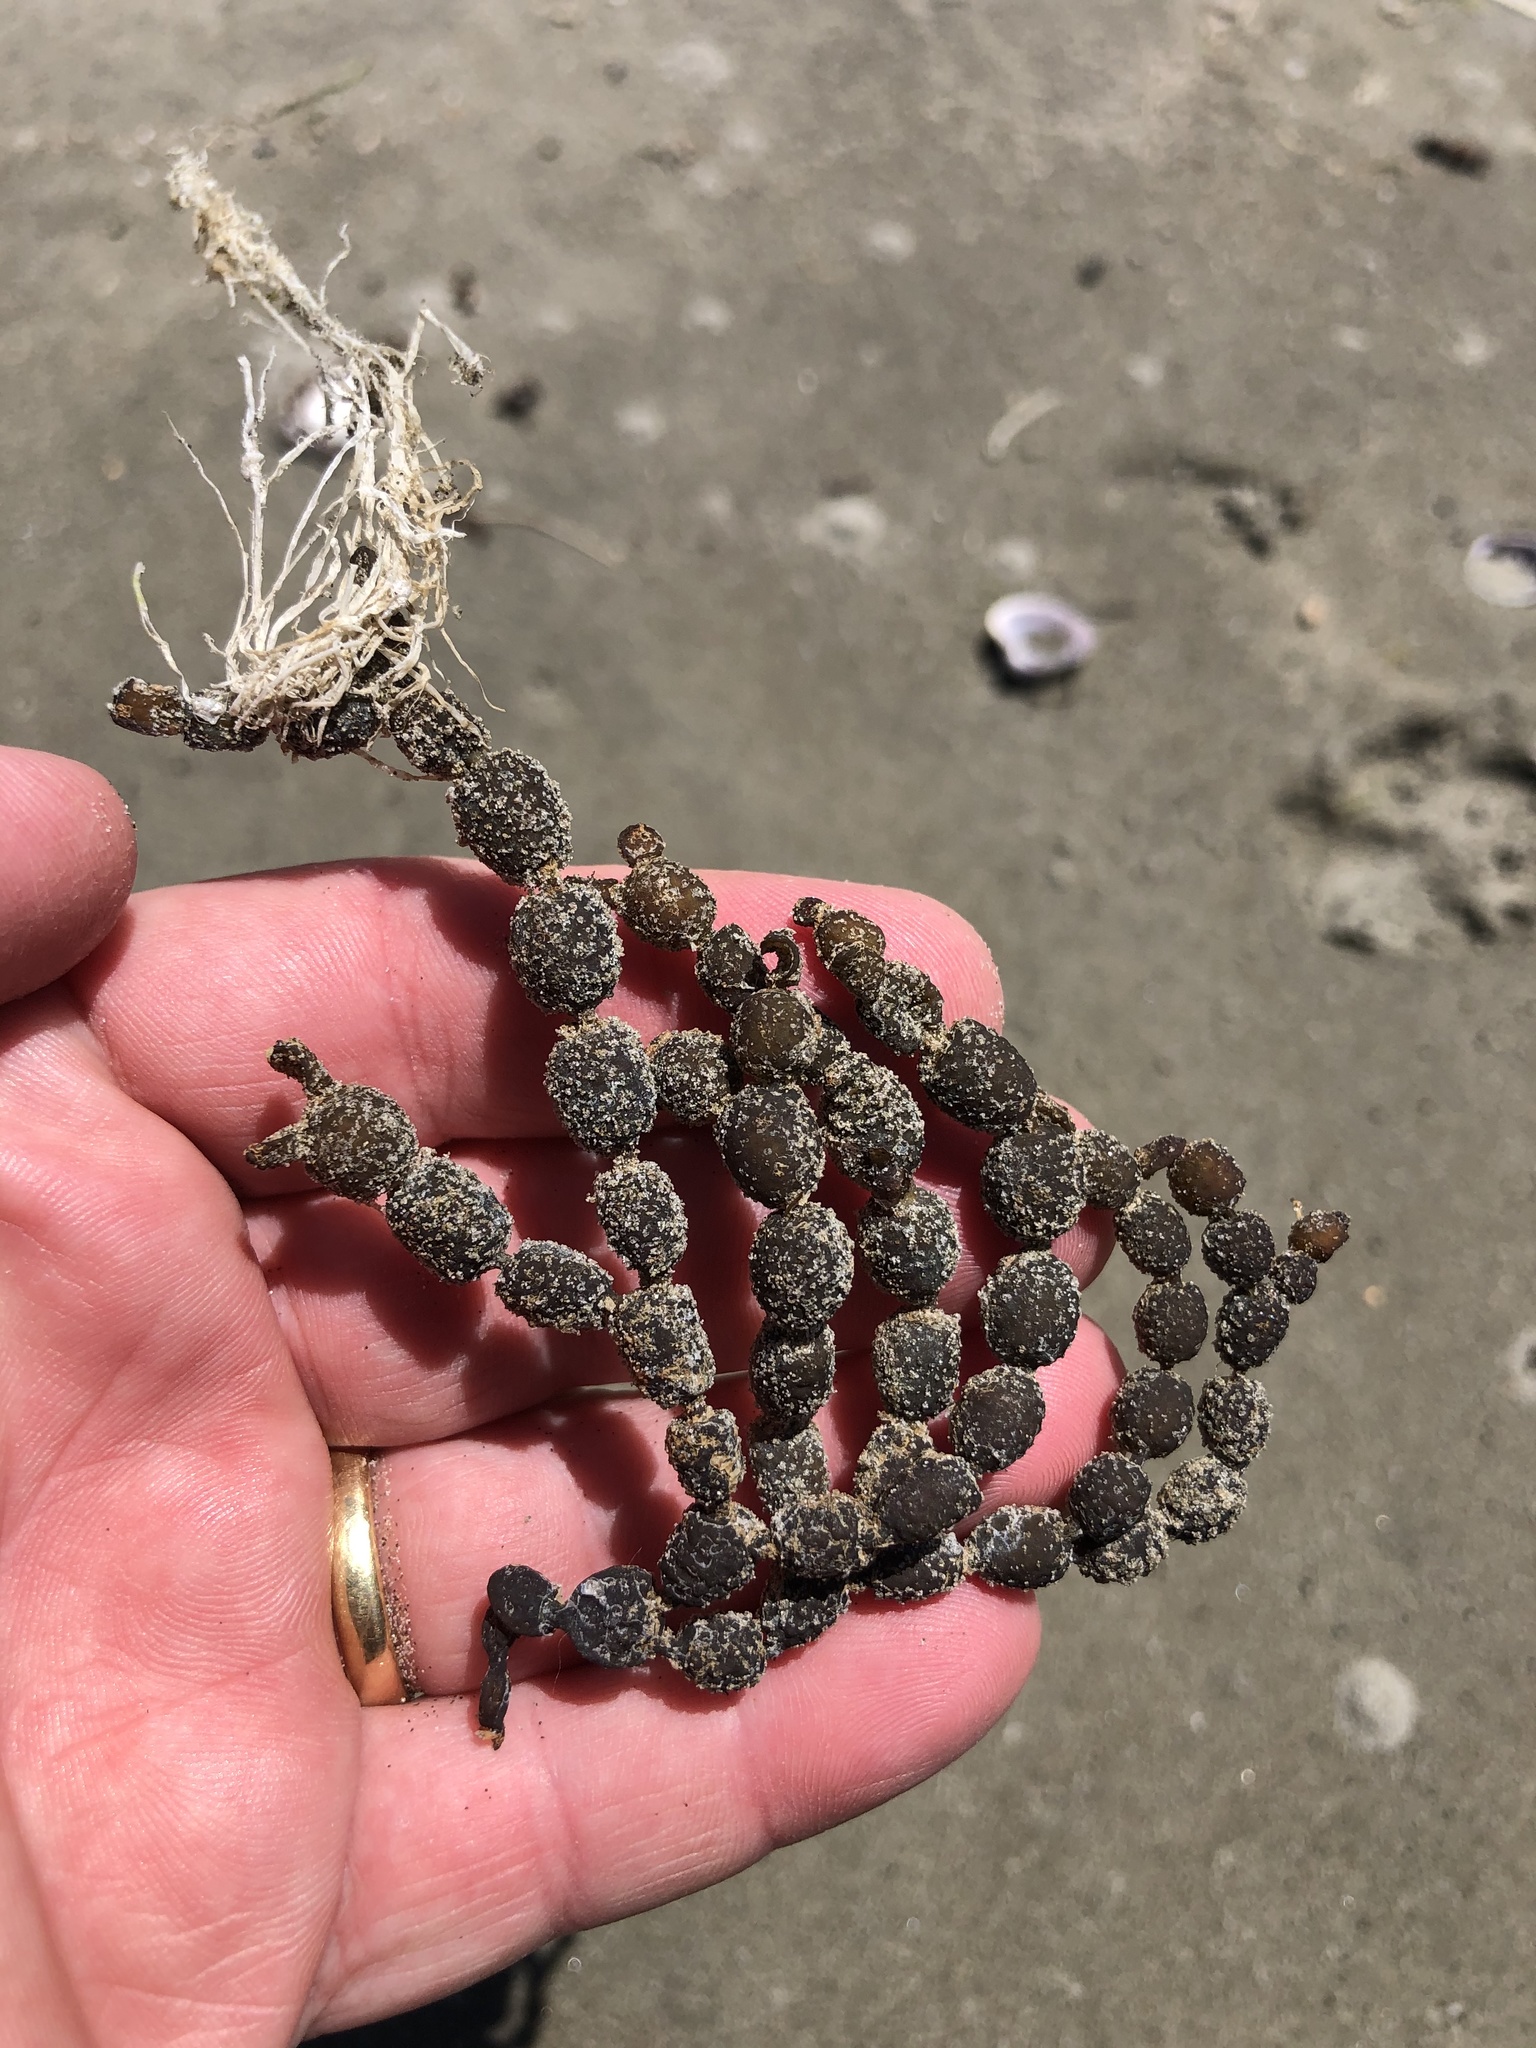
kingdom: Chromista
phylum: Ochrophyta
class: Phaeophyceae
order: Fucales
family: Hormosiraceae
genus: Hormosira
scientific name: Hormosira banksii
